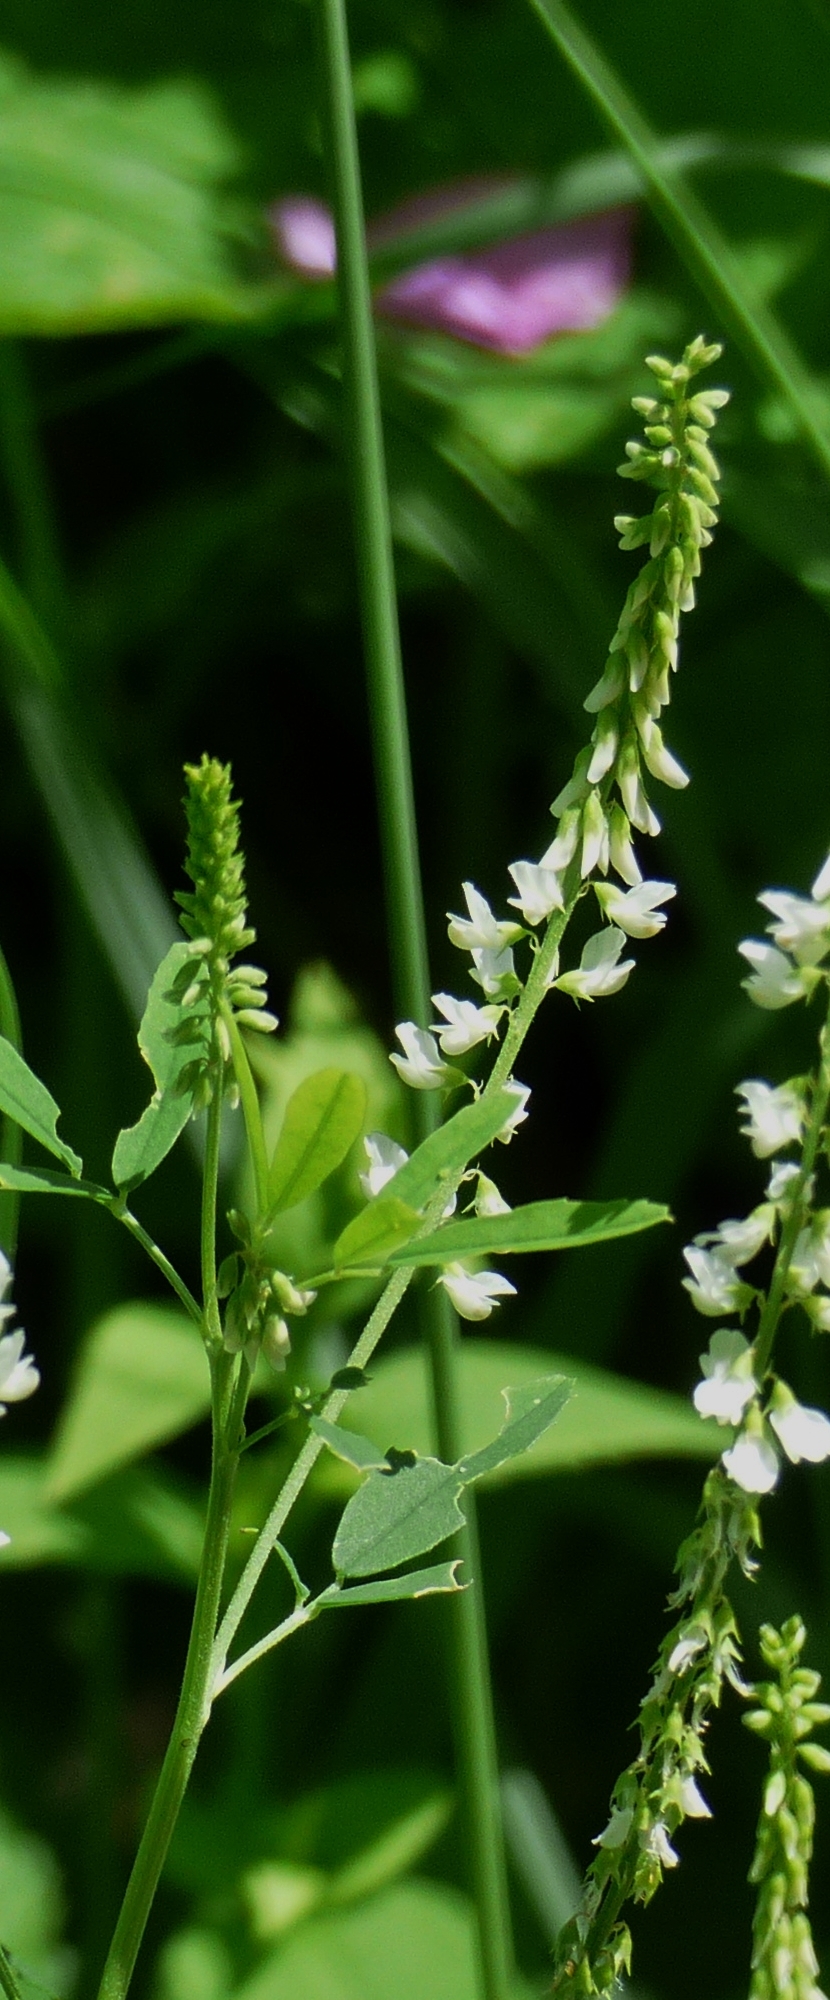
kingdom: Plantae
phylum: Tracheophyta
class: Magnoliopsida
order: Fabales
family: Fabaceae
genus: Melilotus
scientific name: Melilotus albus
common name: White melilot
